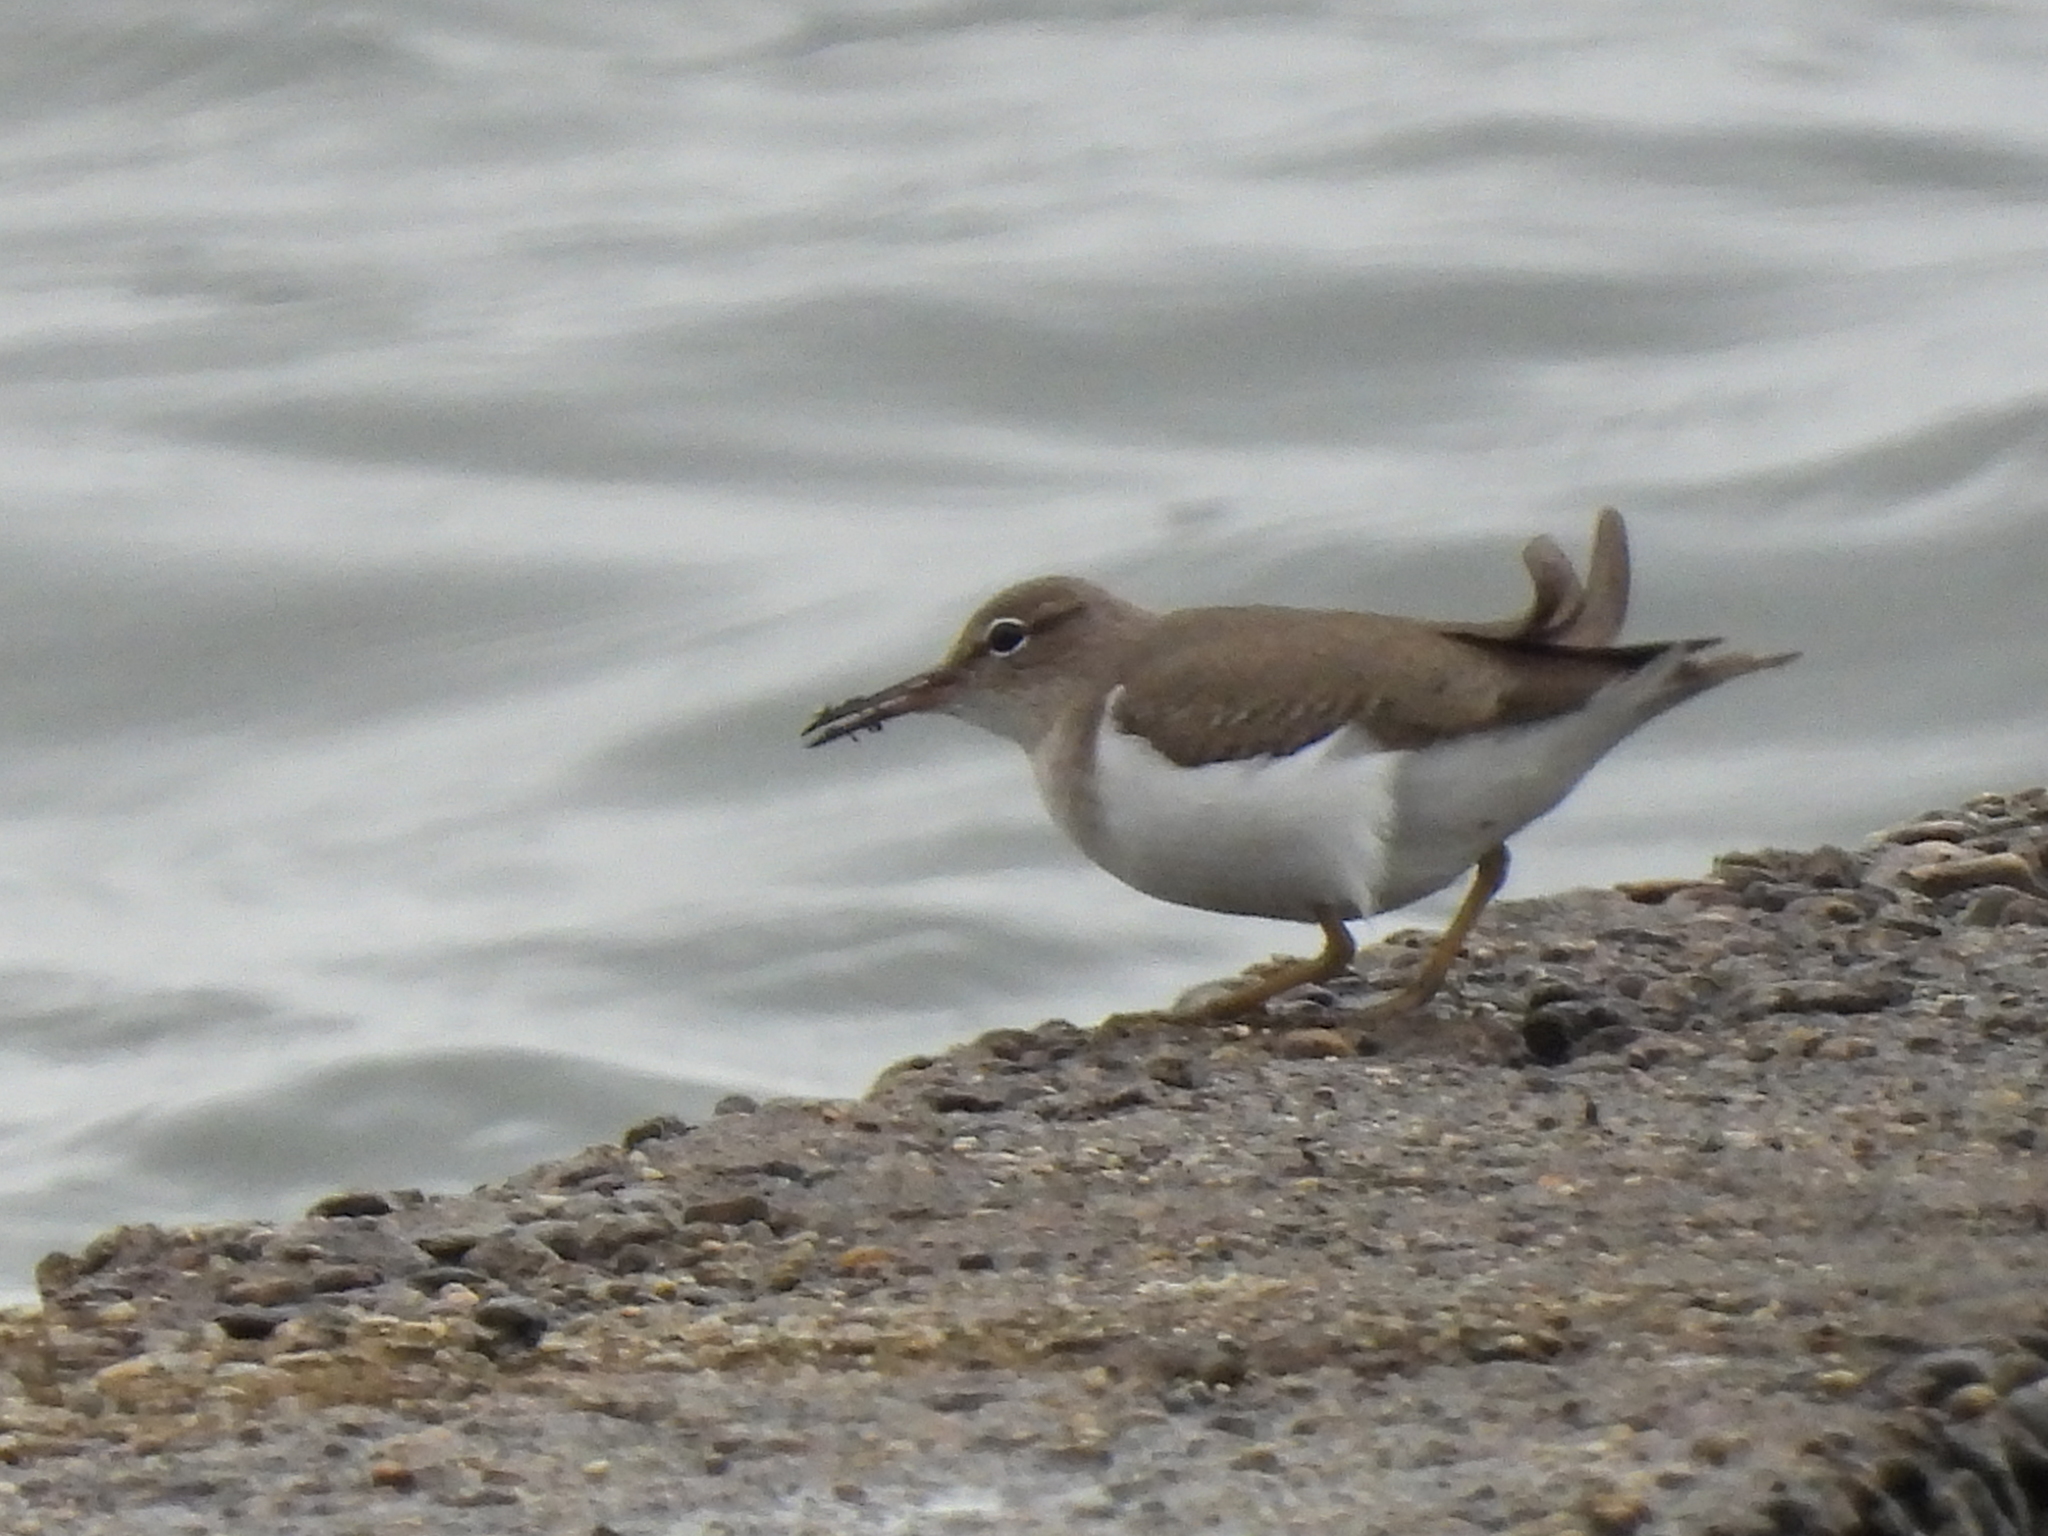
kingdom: Animalia
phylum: Chordata
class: Aves
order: Charadriiformes
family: Scolopacidae
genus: Actitis
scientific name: Actitis macularius
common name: Spotted sandpiper
